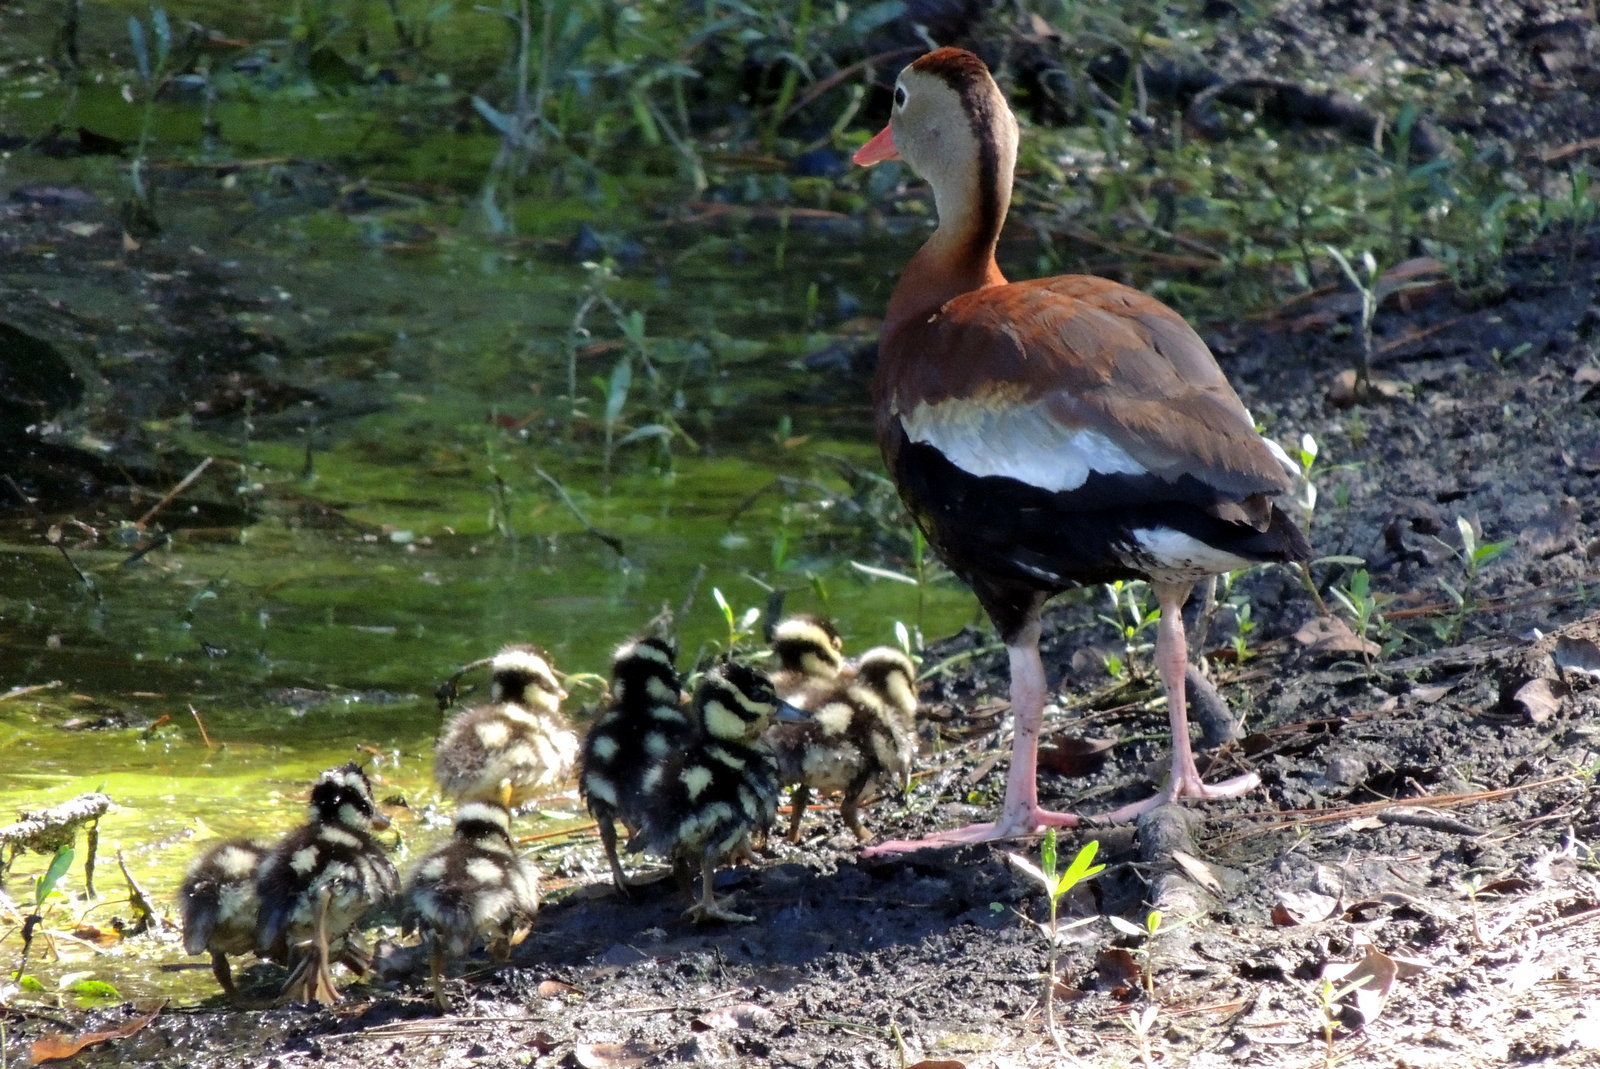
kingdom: Animalia
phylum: Chordata
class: Aves
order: Anseriformes
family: Anatidae
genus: Dendrocygna
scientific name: Dendrocygna autumnalis
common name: Black-bellied whistling duck
